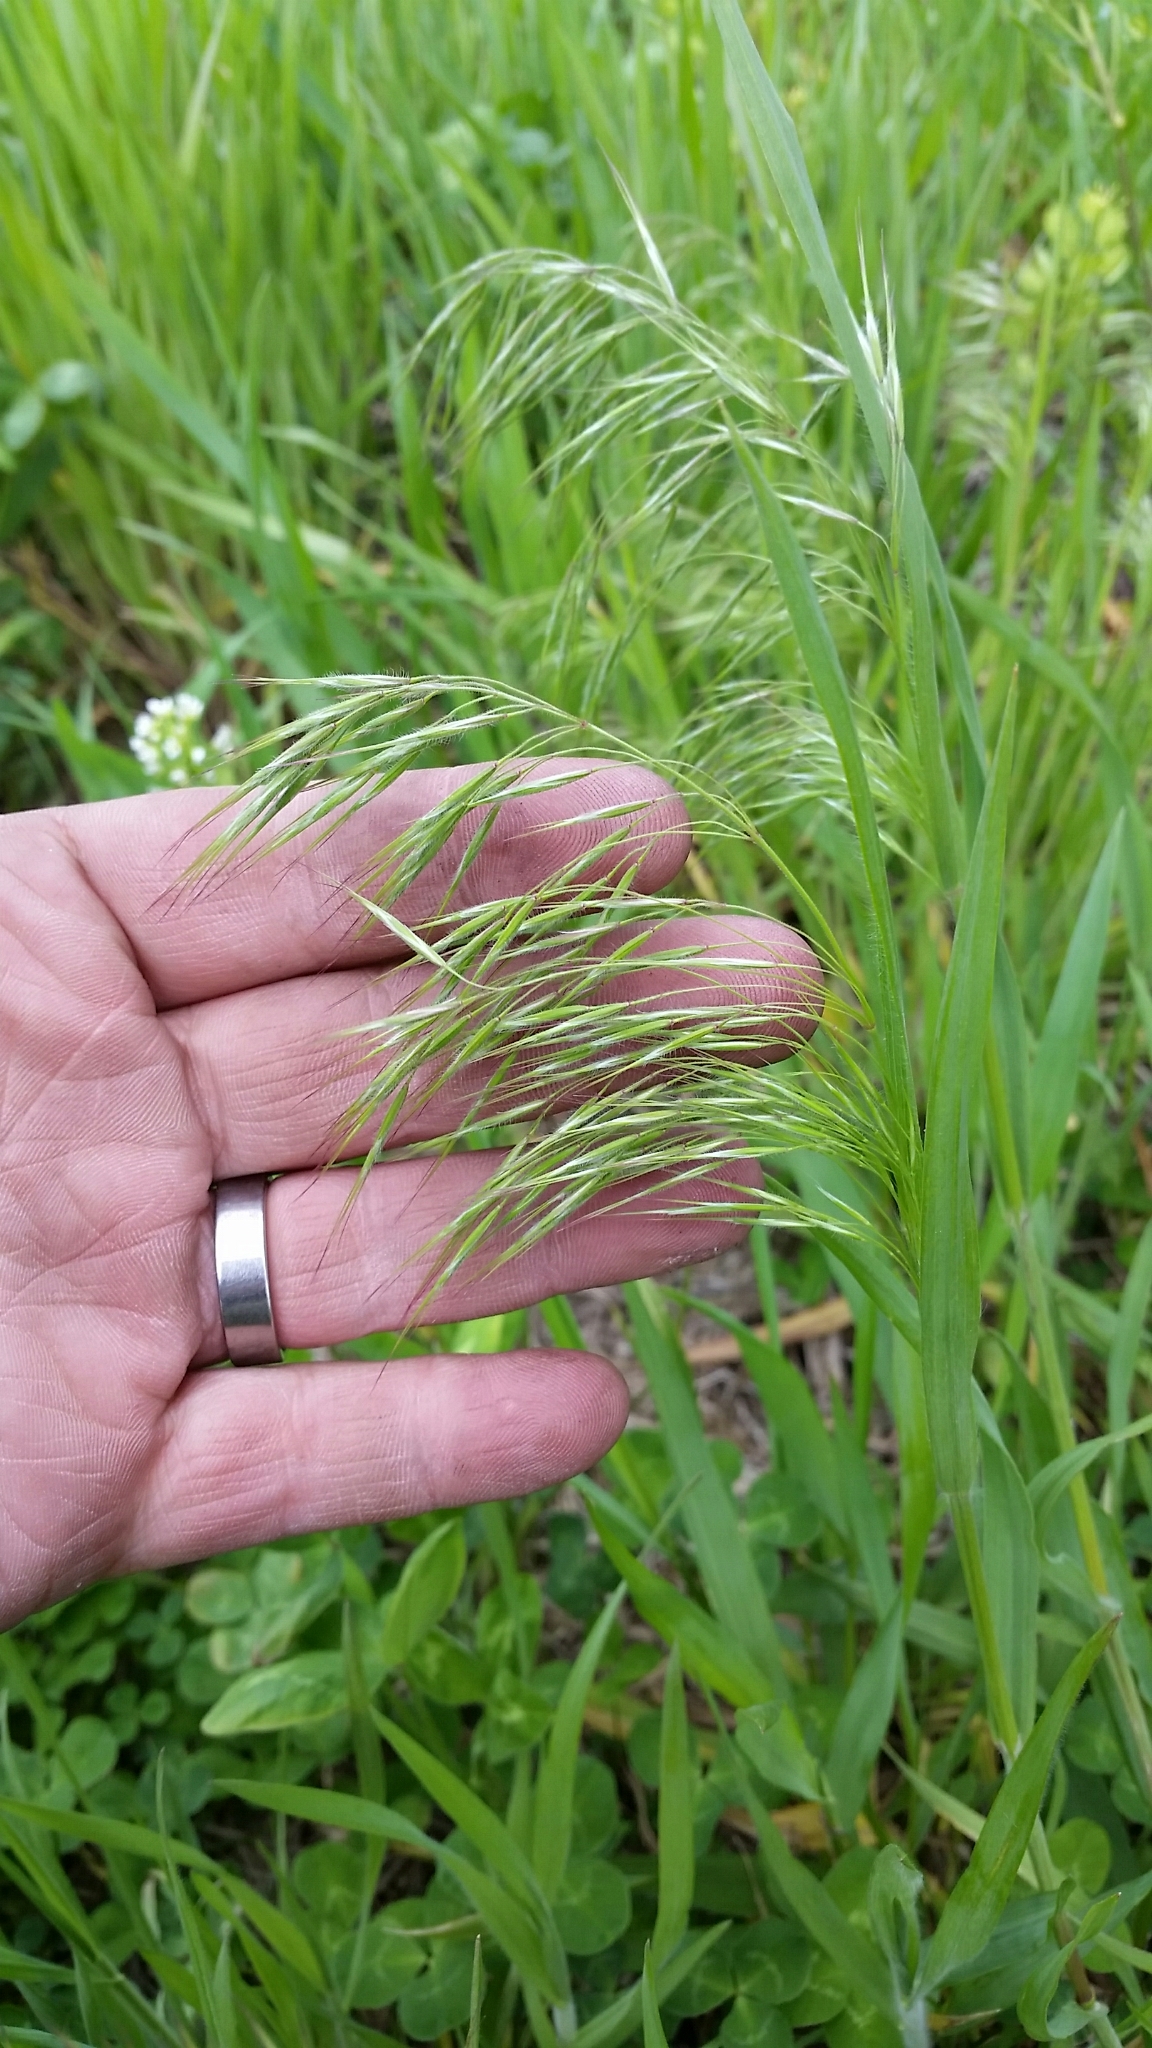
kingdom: Plantae
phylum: Tracheophyta
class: Liliopsida
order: Poales
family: Poaceae
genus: Bromus
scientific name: Bromus tectorum
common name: Cheatgrass
